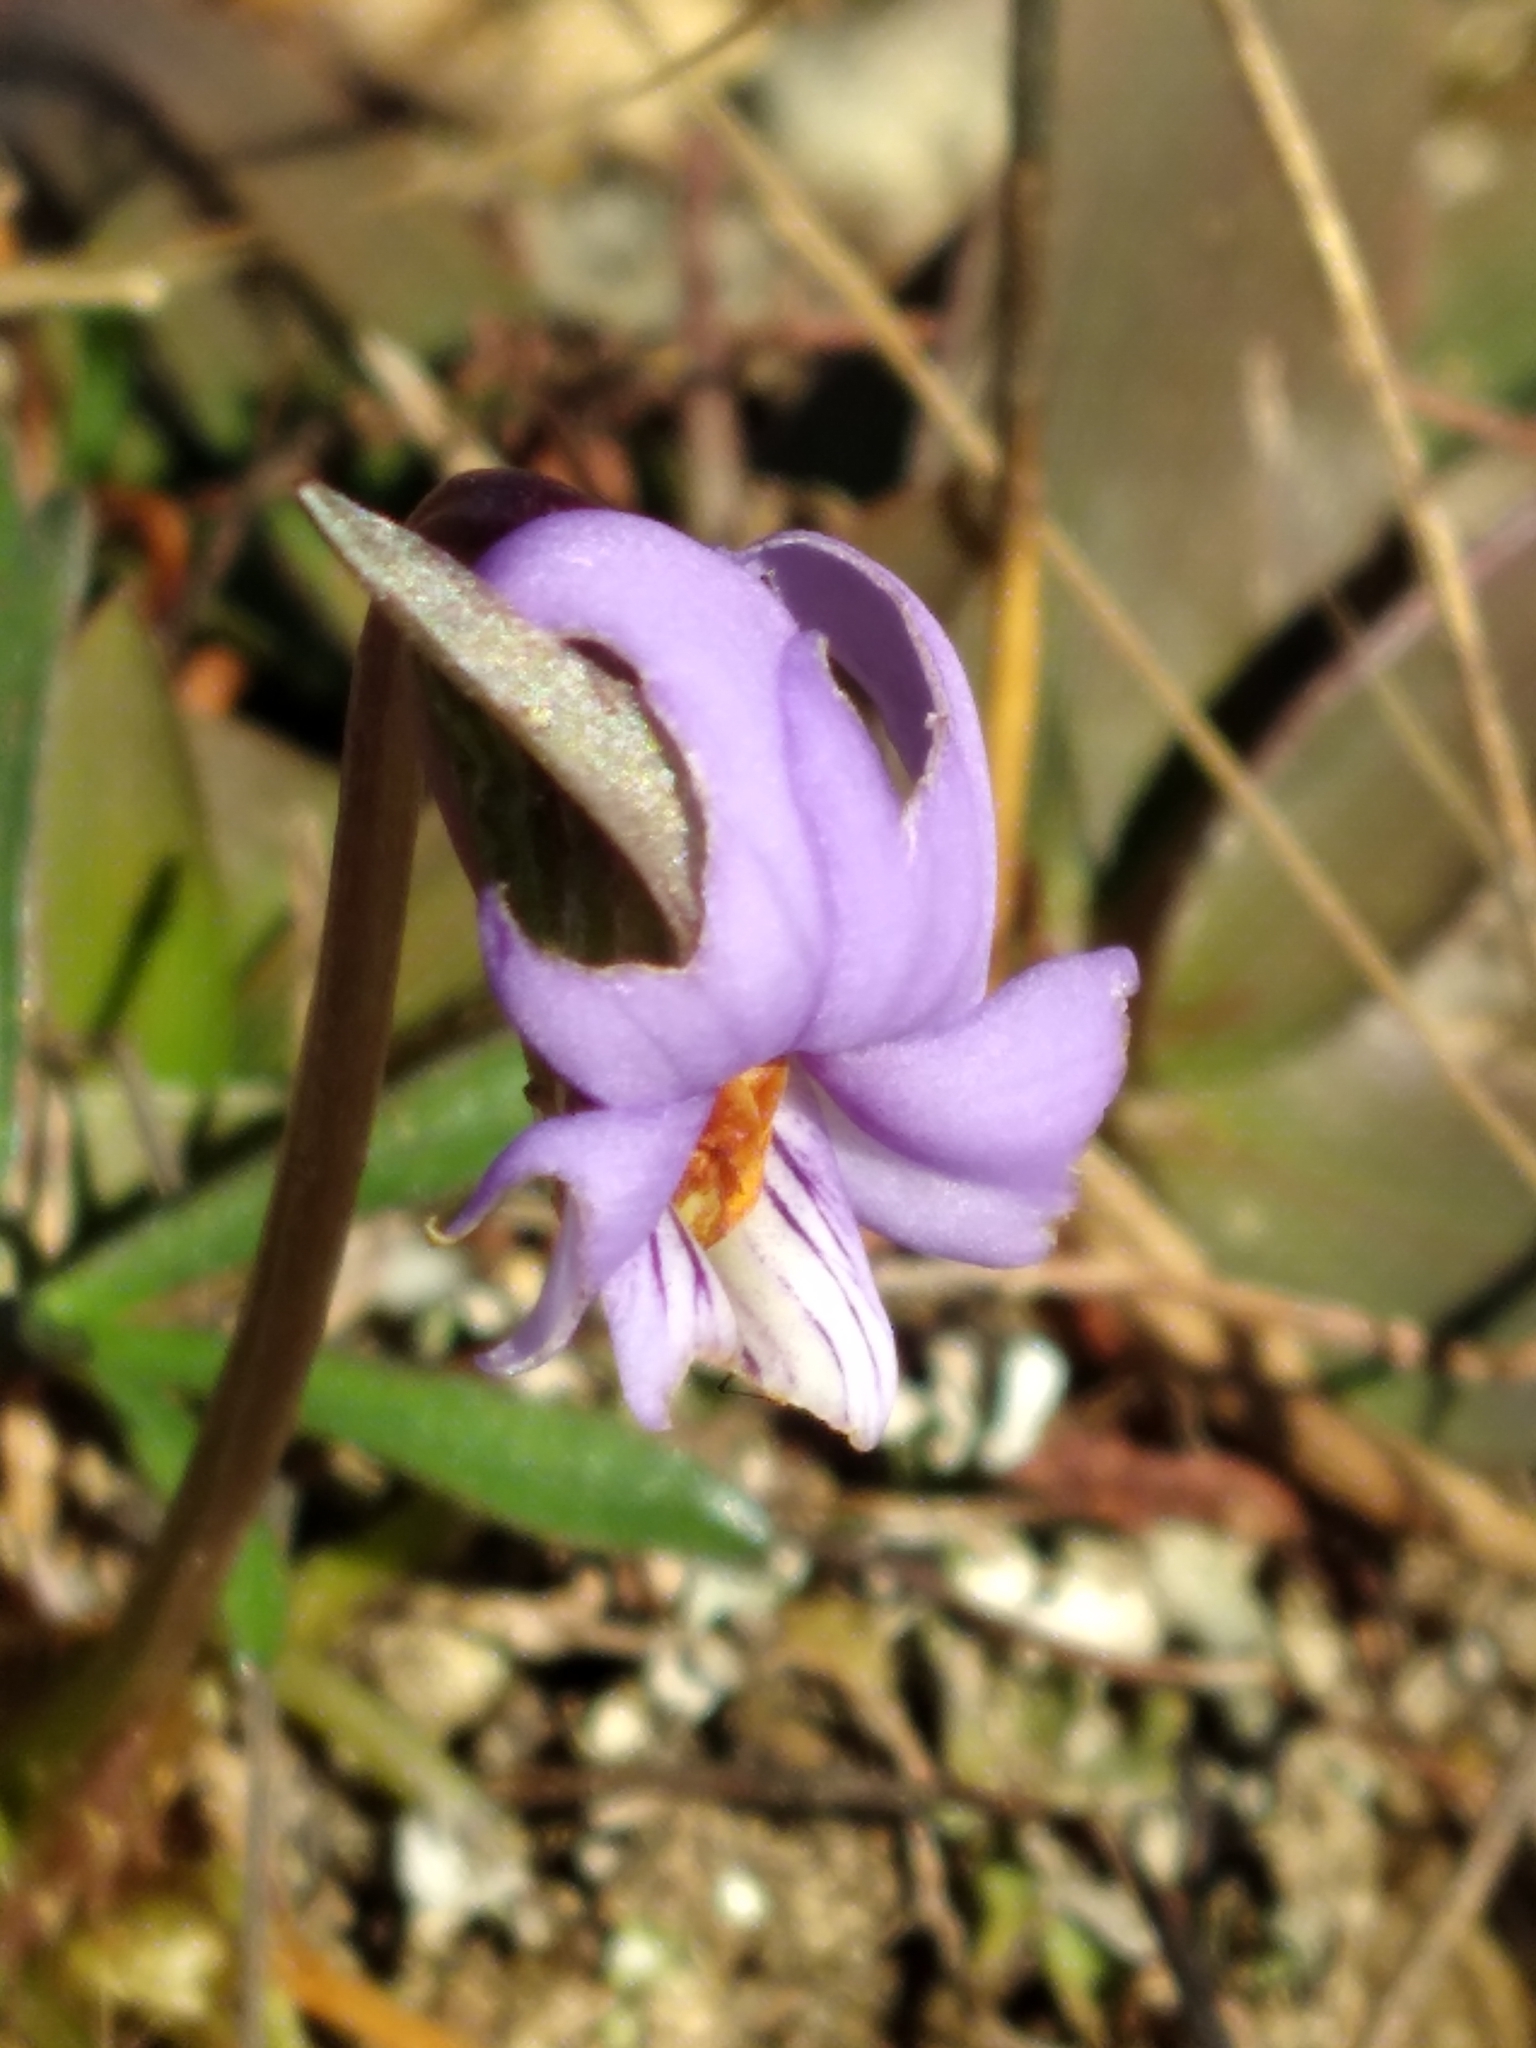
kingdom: Plantae
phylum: Tracheophyta
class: Magnoliopsida
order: Malpighiales
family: Violaceae
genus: Viola
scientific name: Viola pedata
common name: Pansy violet
